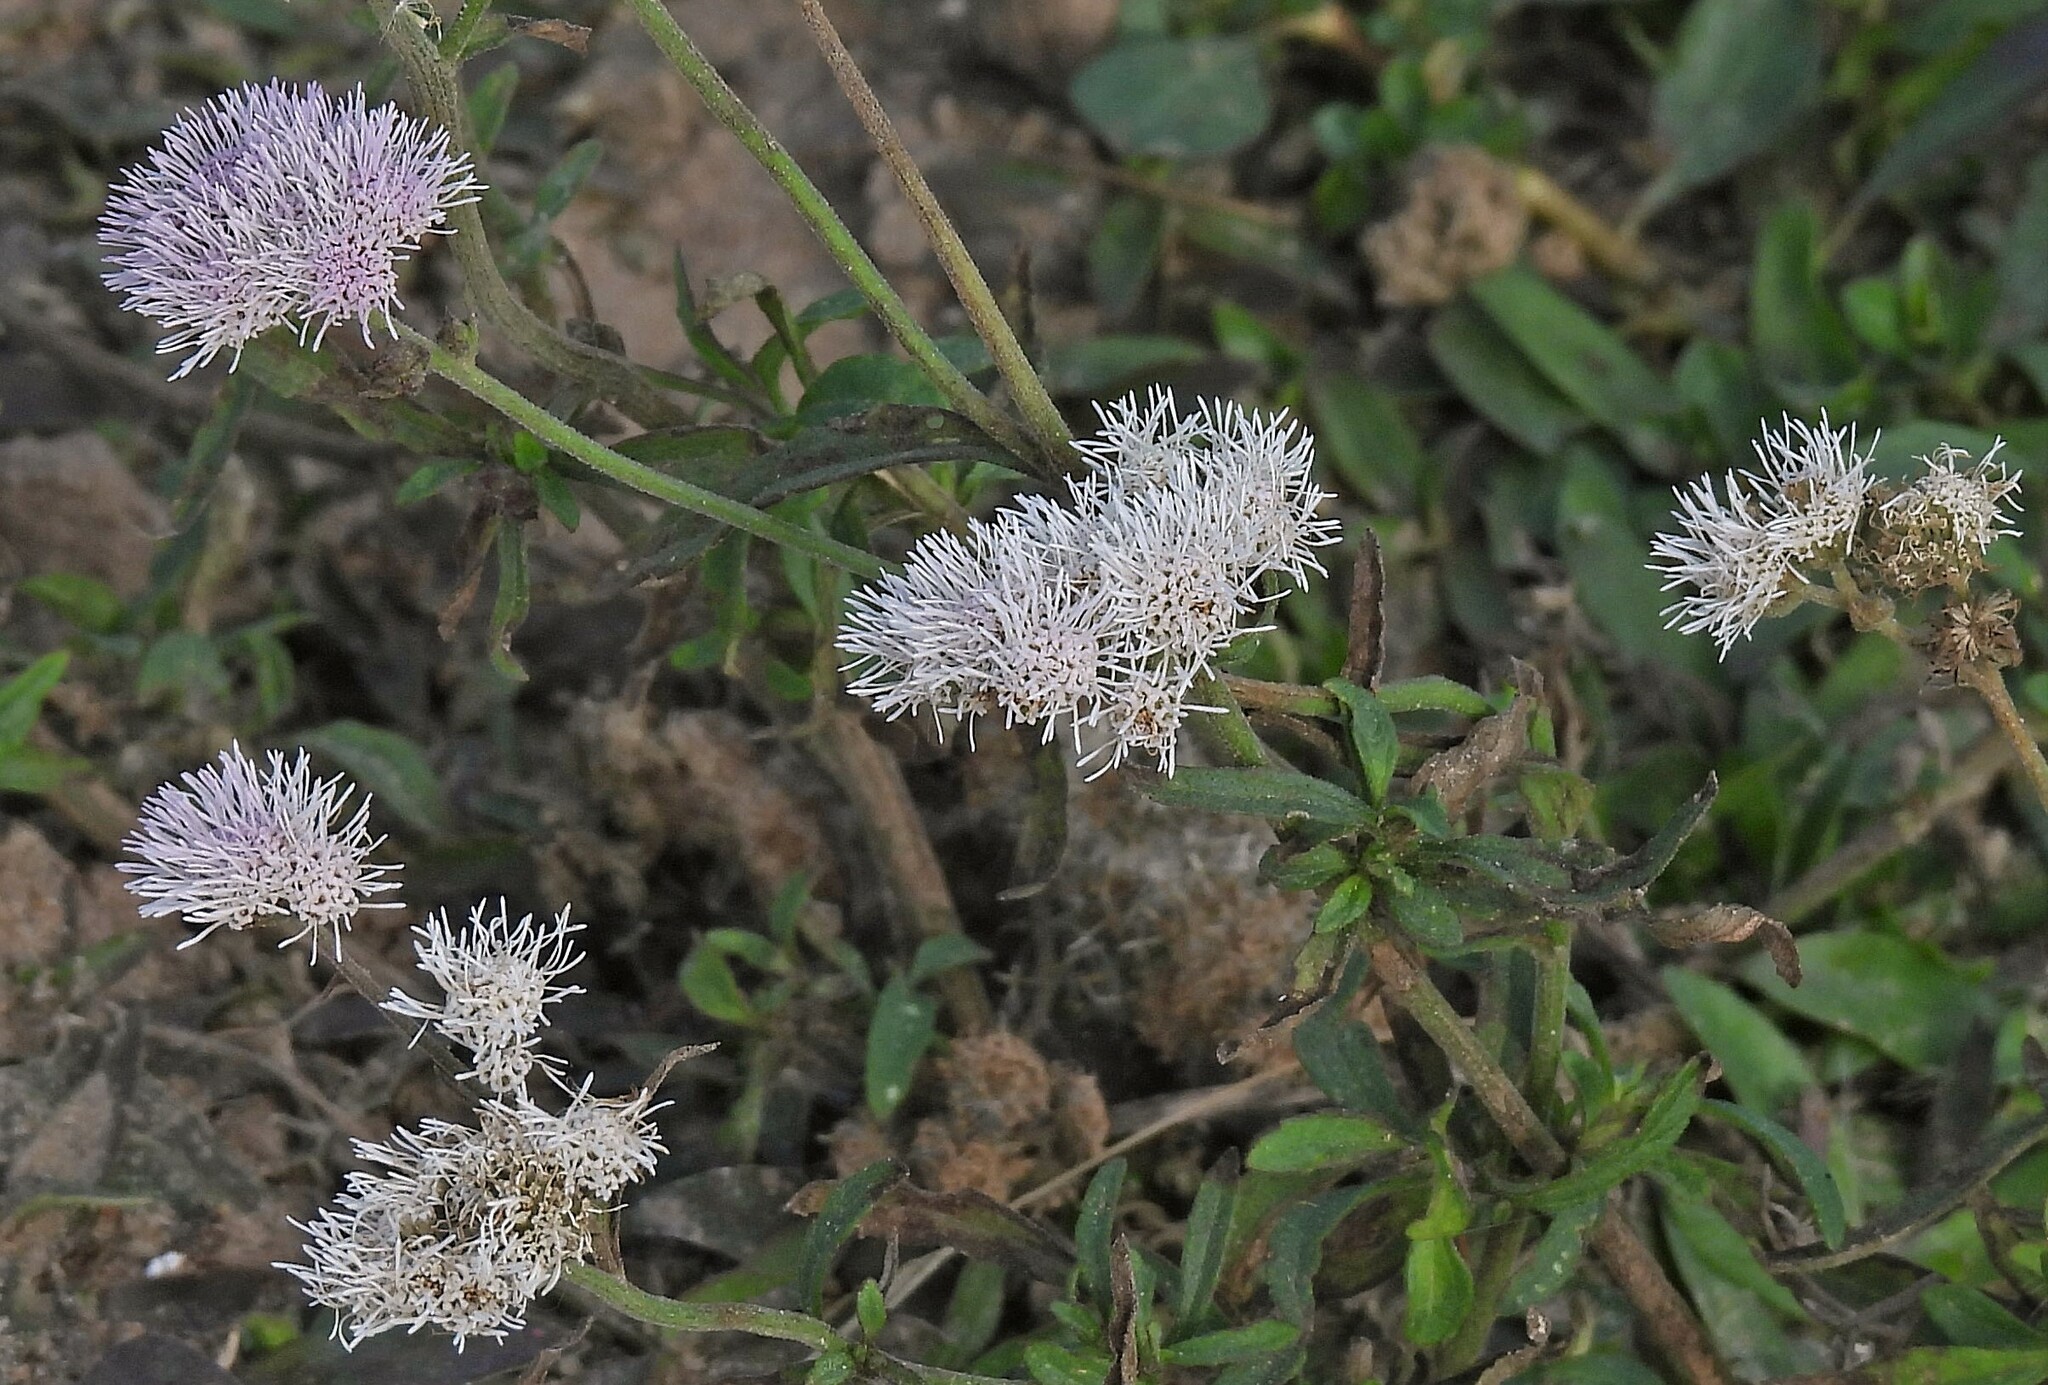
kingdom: Plantae
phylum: Tracheophyta
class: Magnoliopsida
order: Asterales
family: Asteraceae
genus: Barrosoa
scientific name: Barrosoa candolleana
